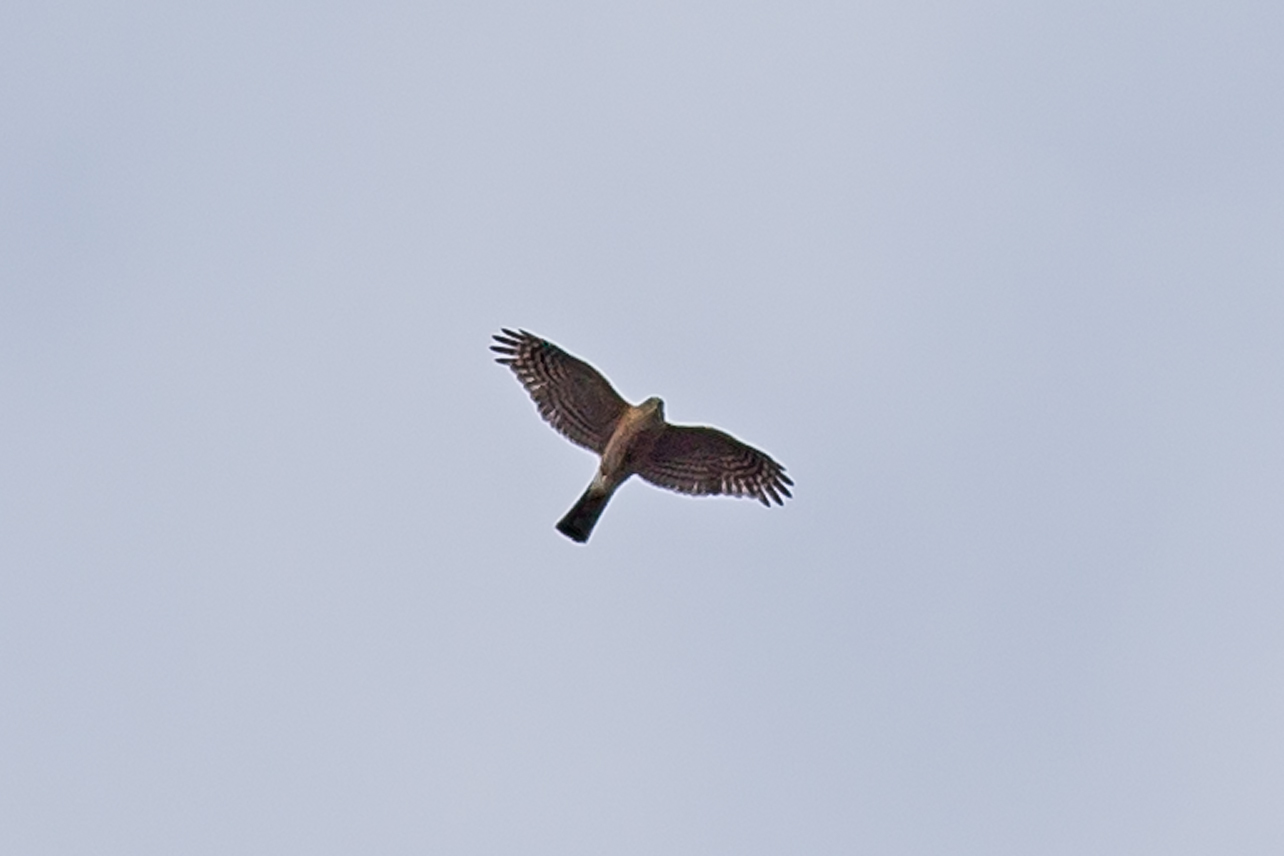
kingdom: Animalia
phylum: Chordata
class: Aves
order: Accipitriformes
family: Accipitridae
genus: Accipiter
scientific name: Accipiter striatus
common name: Sharp-shinned hawk
